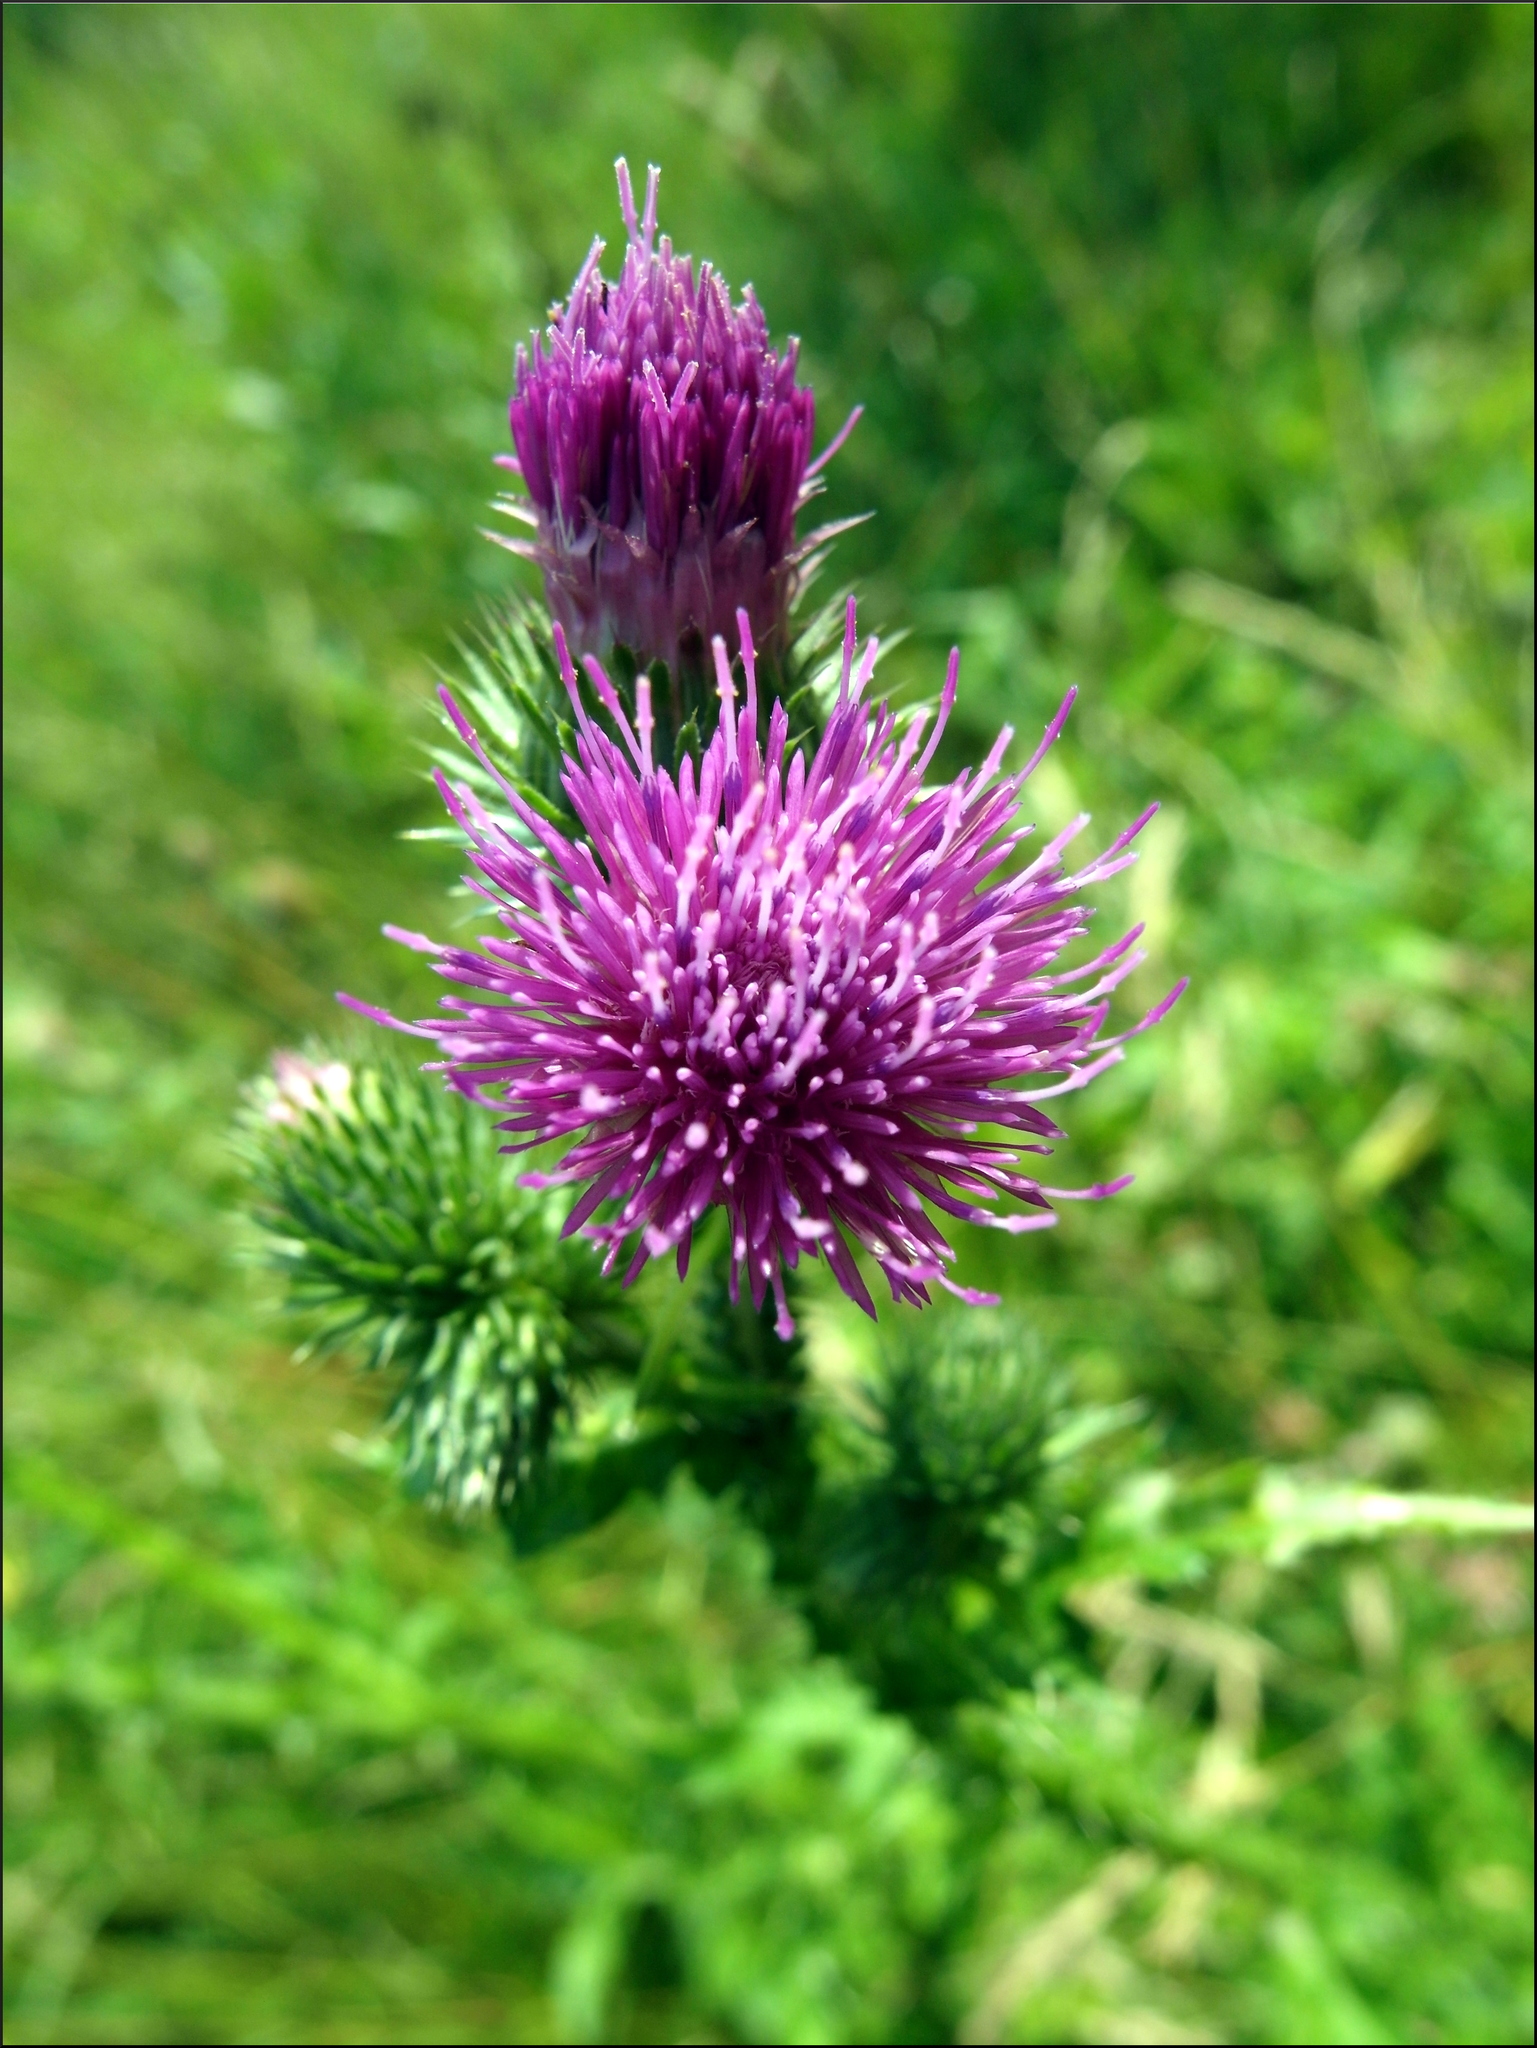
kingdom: Plantae
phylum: Tracheophyta
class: Magnoliopsida
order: Asterales
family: Asteraceae
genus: Carduus
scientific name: Carduus crispus
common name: Welted thistle
